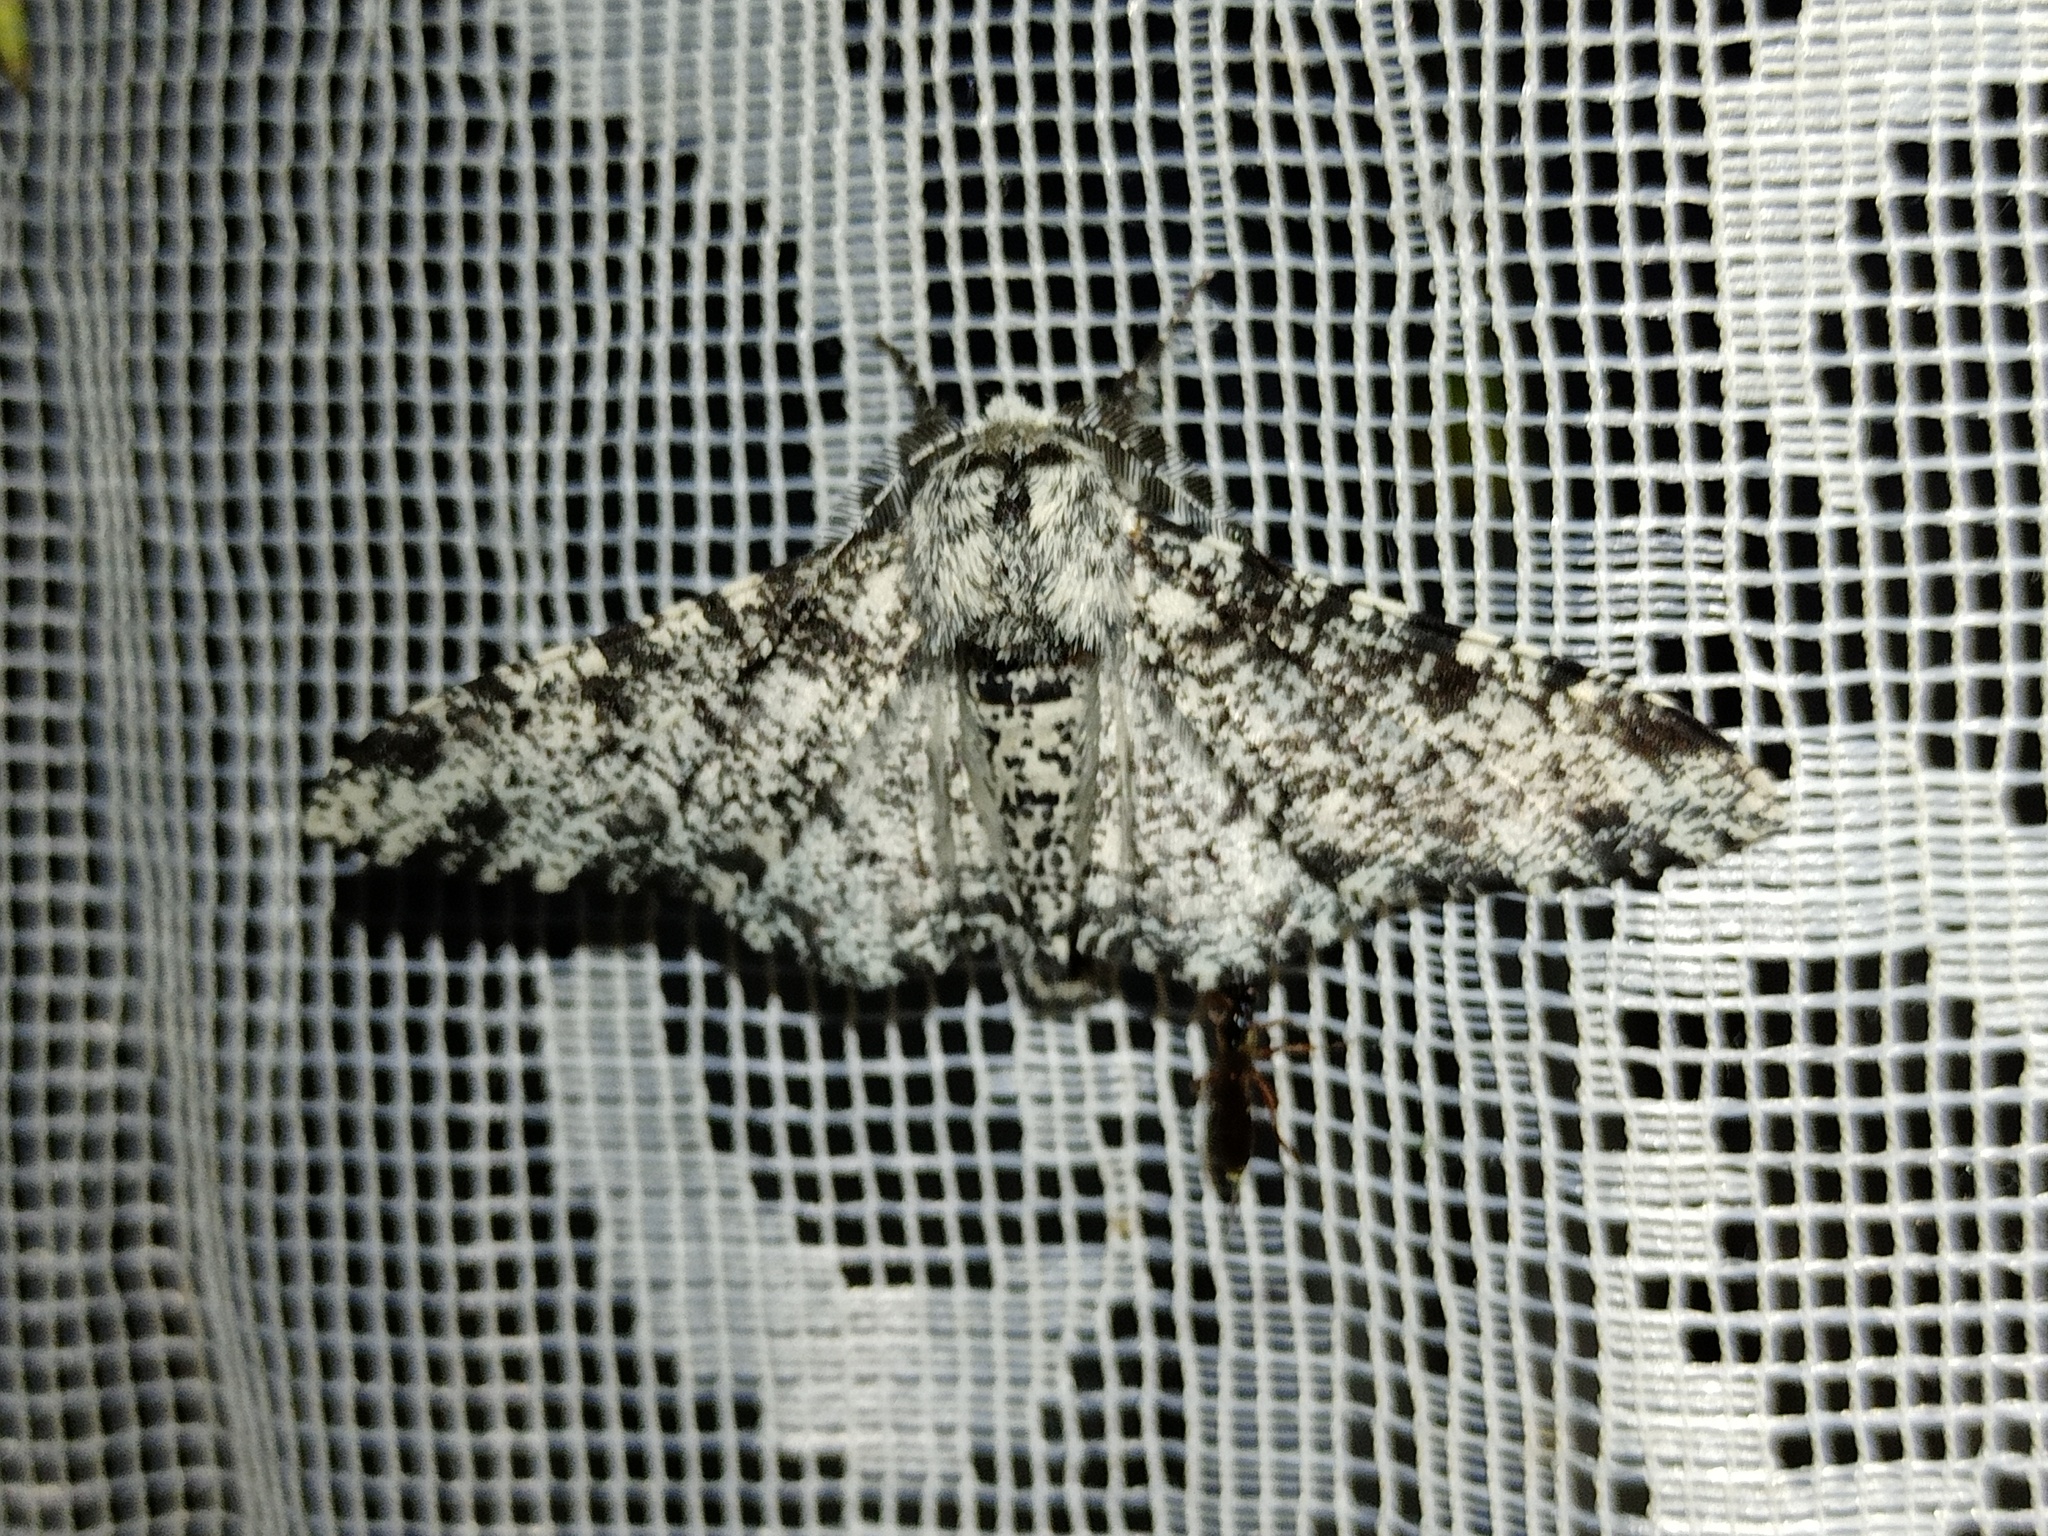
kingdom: Animalia
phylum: Arthropoda
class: Insecta
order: Lepidoptera
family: Geometridae
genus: Biston
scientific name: Biston betularia
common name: Peppered moth
